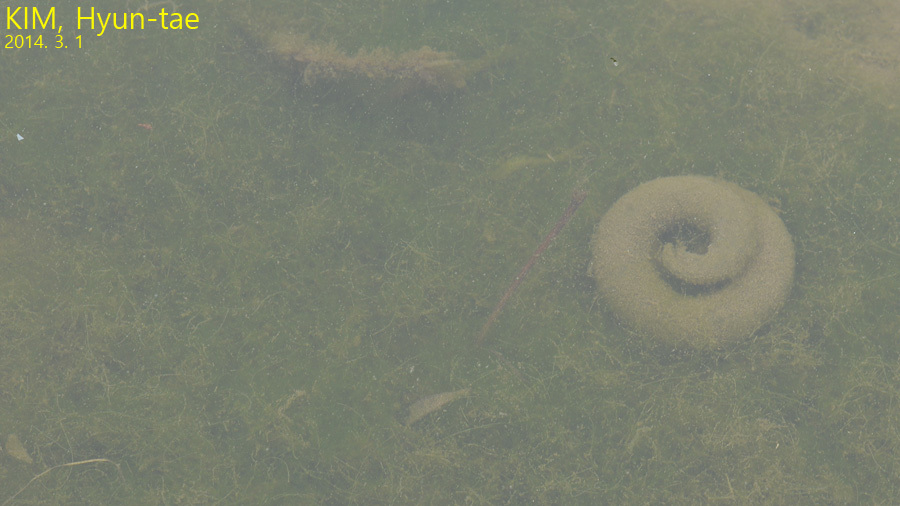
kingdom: Animalia
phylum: Chordata
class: Amphibia
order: Caudata
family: Hynobiidae
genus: Hynobius
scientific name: Hynobius quelpaertensis
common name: Cheju salamander
